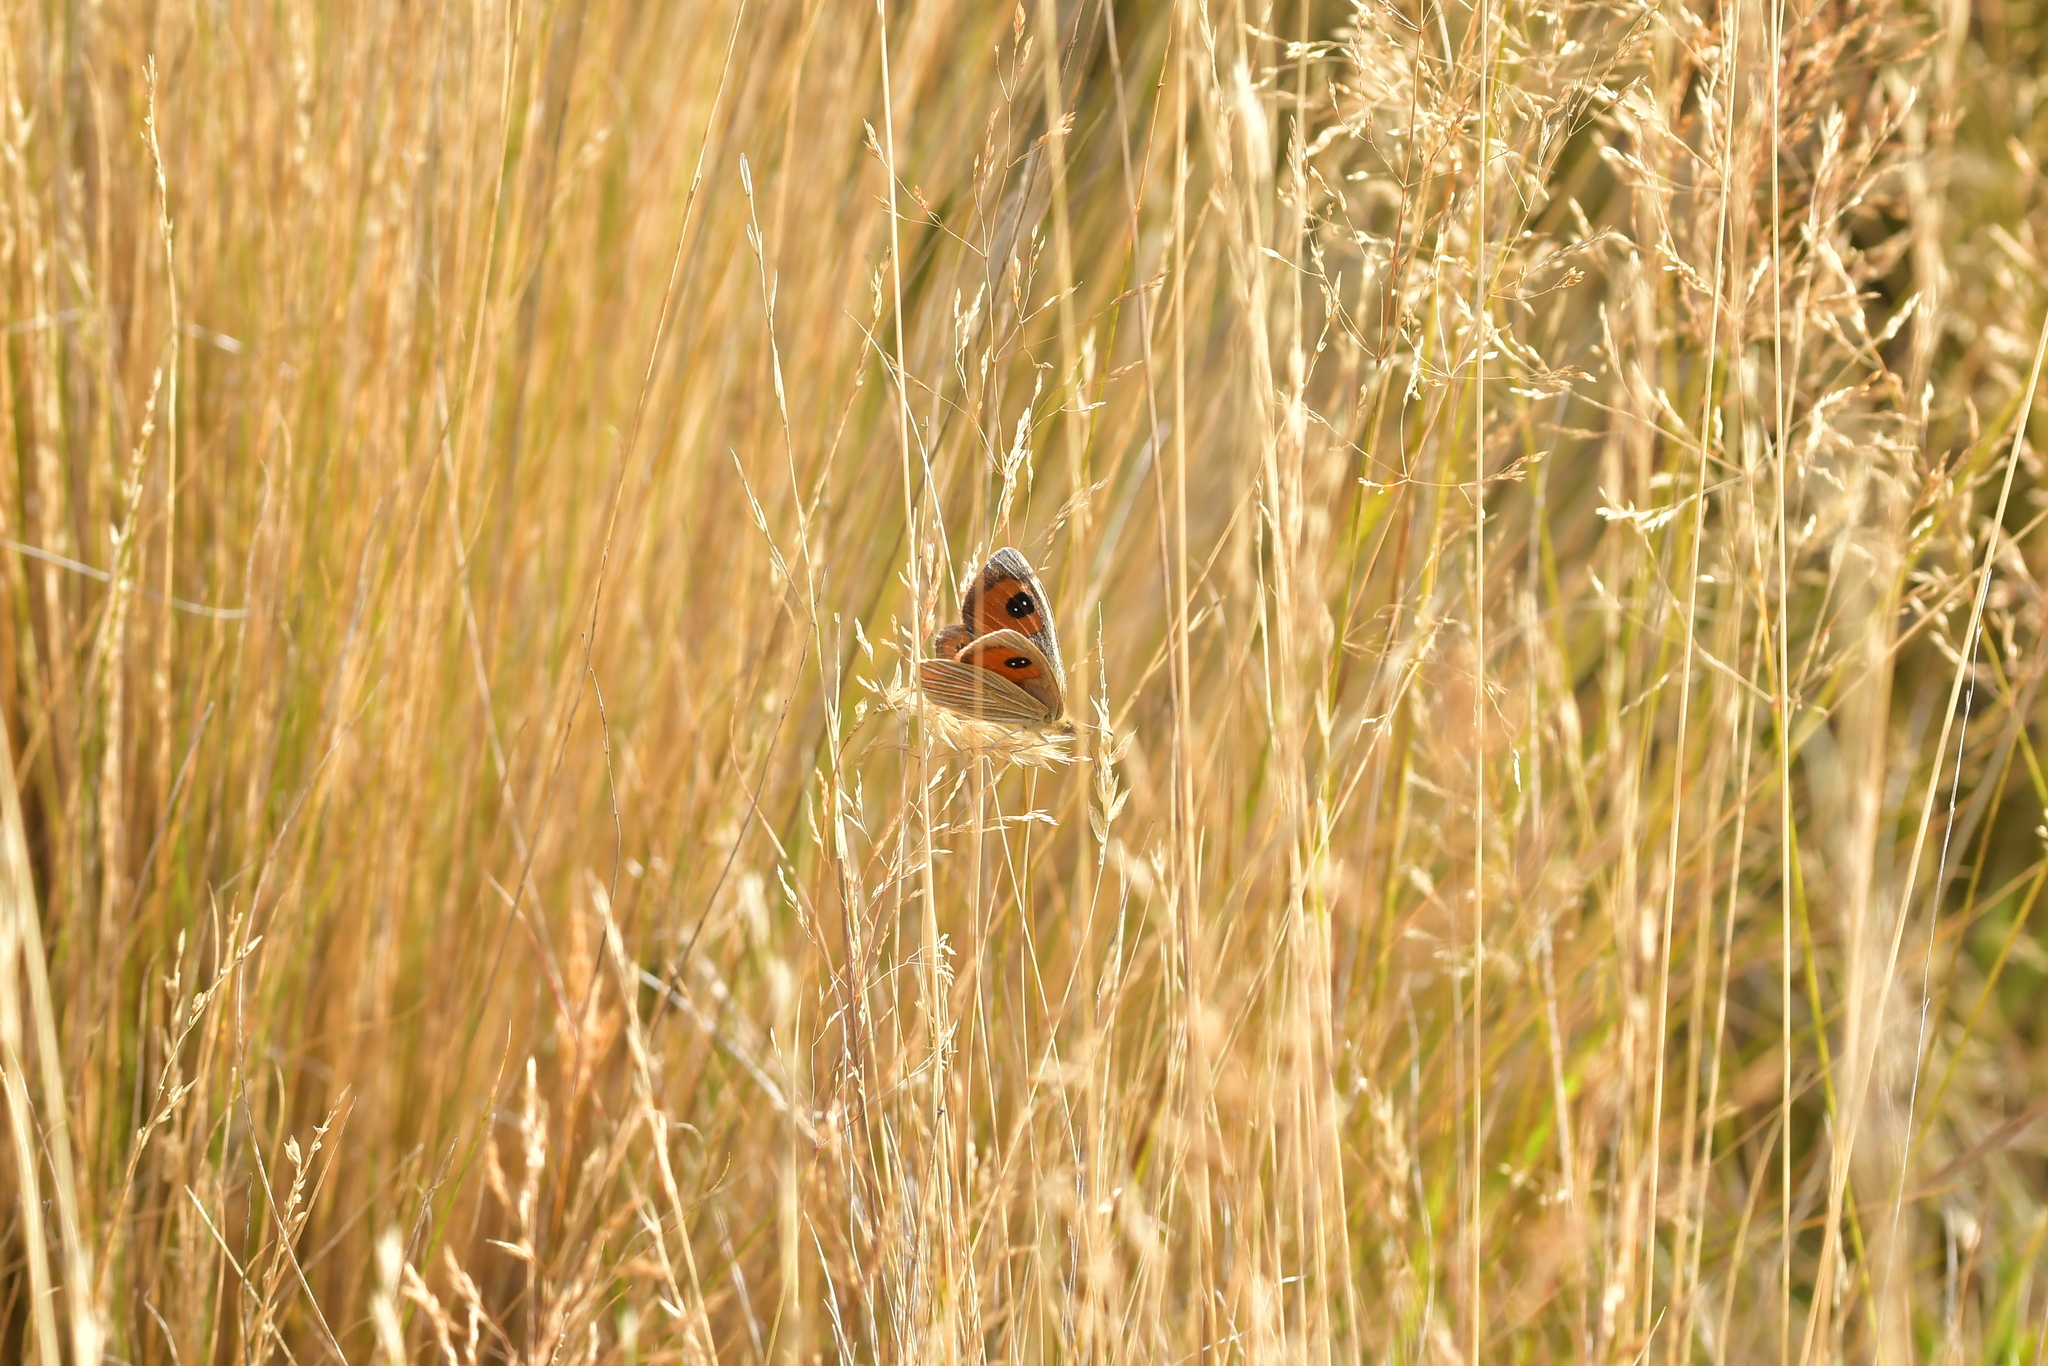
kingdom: Animalia
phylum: Arthropoda
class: Insecta
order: Lepidoptera
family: Nymphalidae
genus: Argyrophenga
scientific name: Argyrophenga antipodum
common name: Common tussock butterfly
